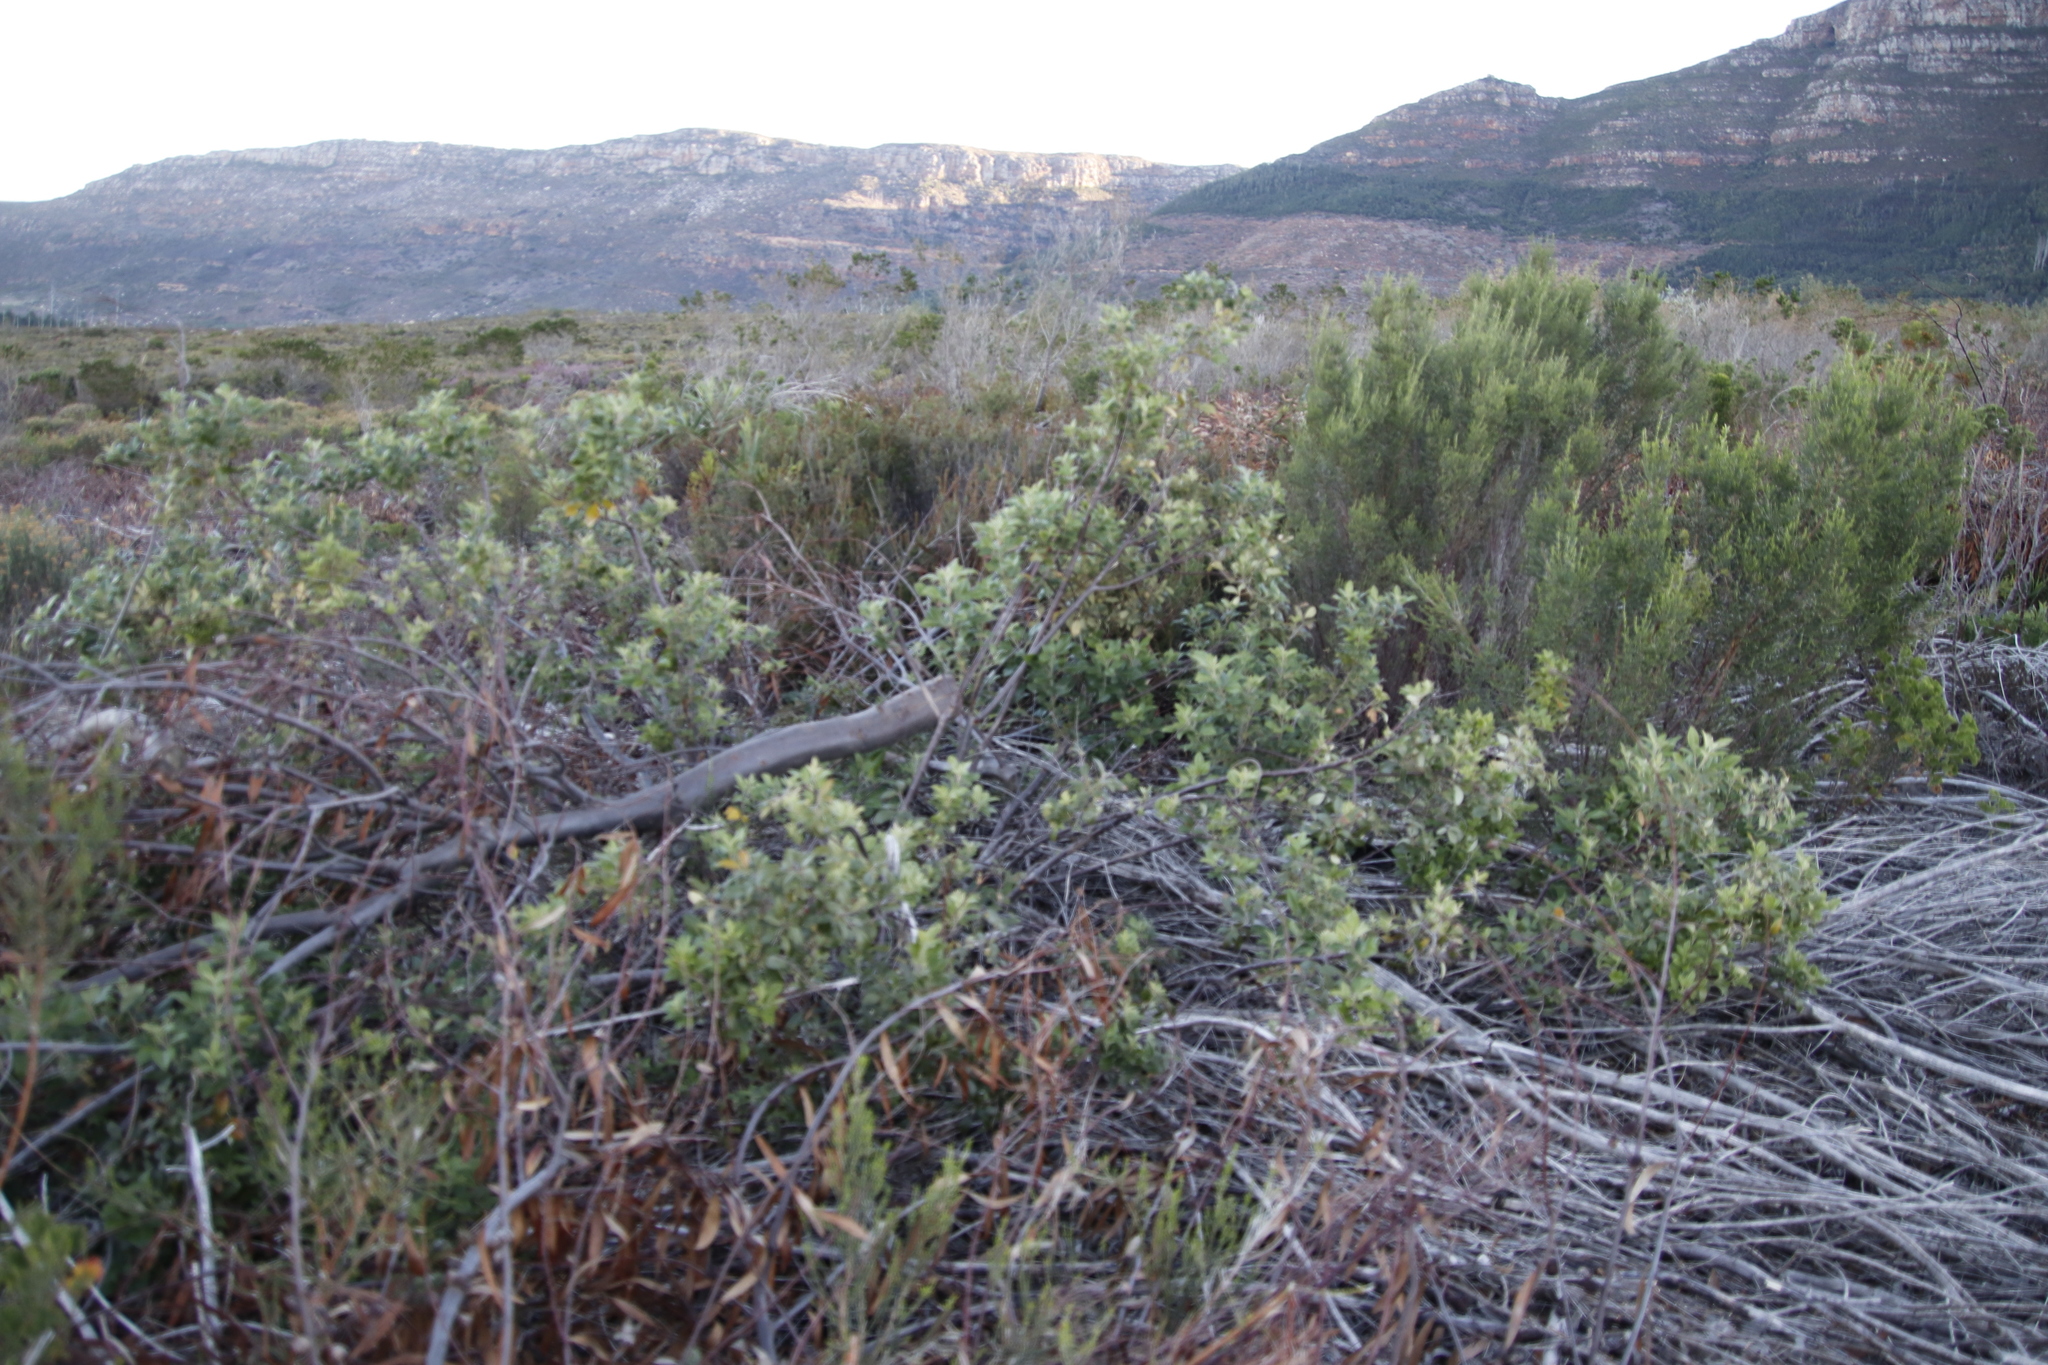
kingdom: Plantae
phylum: Tracheophyta
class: Magnoliopsida
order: Sapindales
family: Anacardiaceae
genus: Searsia
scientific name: Searsia tomentosa
